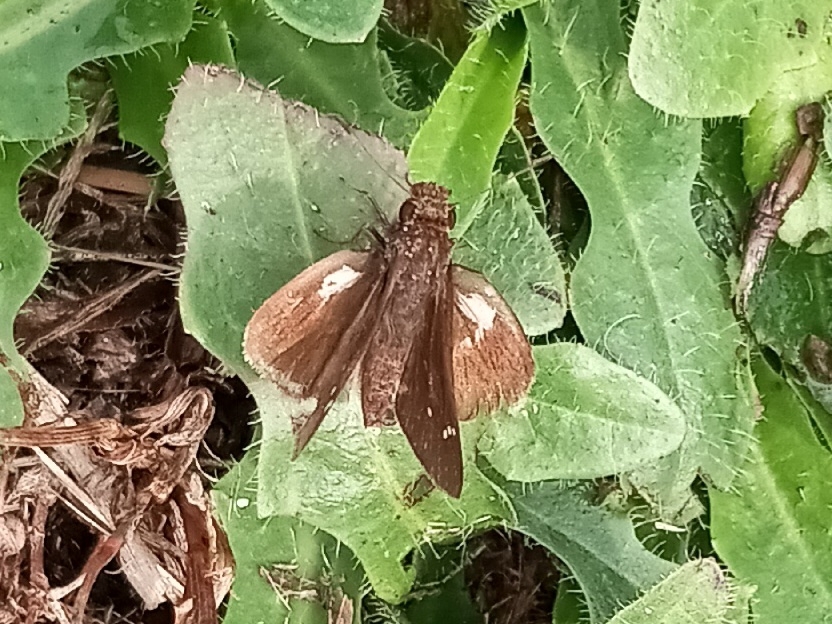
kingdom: Animalia
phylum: Arthropoda
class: Insecta
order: Lepidoptera
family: Hesperiidae
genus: Lerema
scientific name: Lerema accius
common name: Clouded skipper
